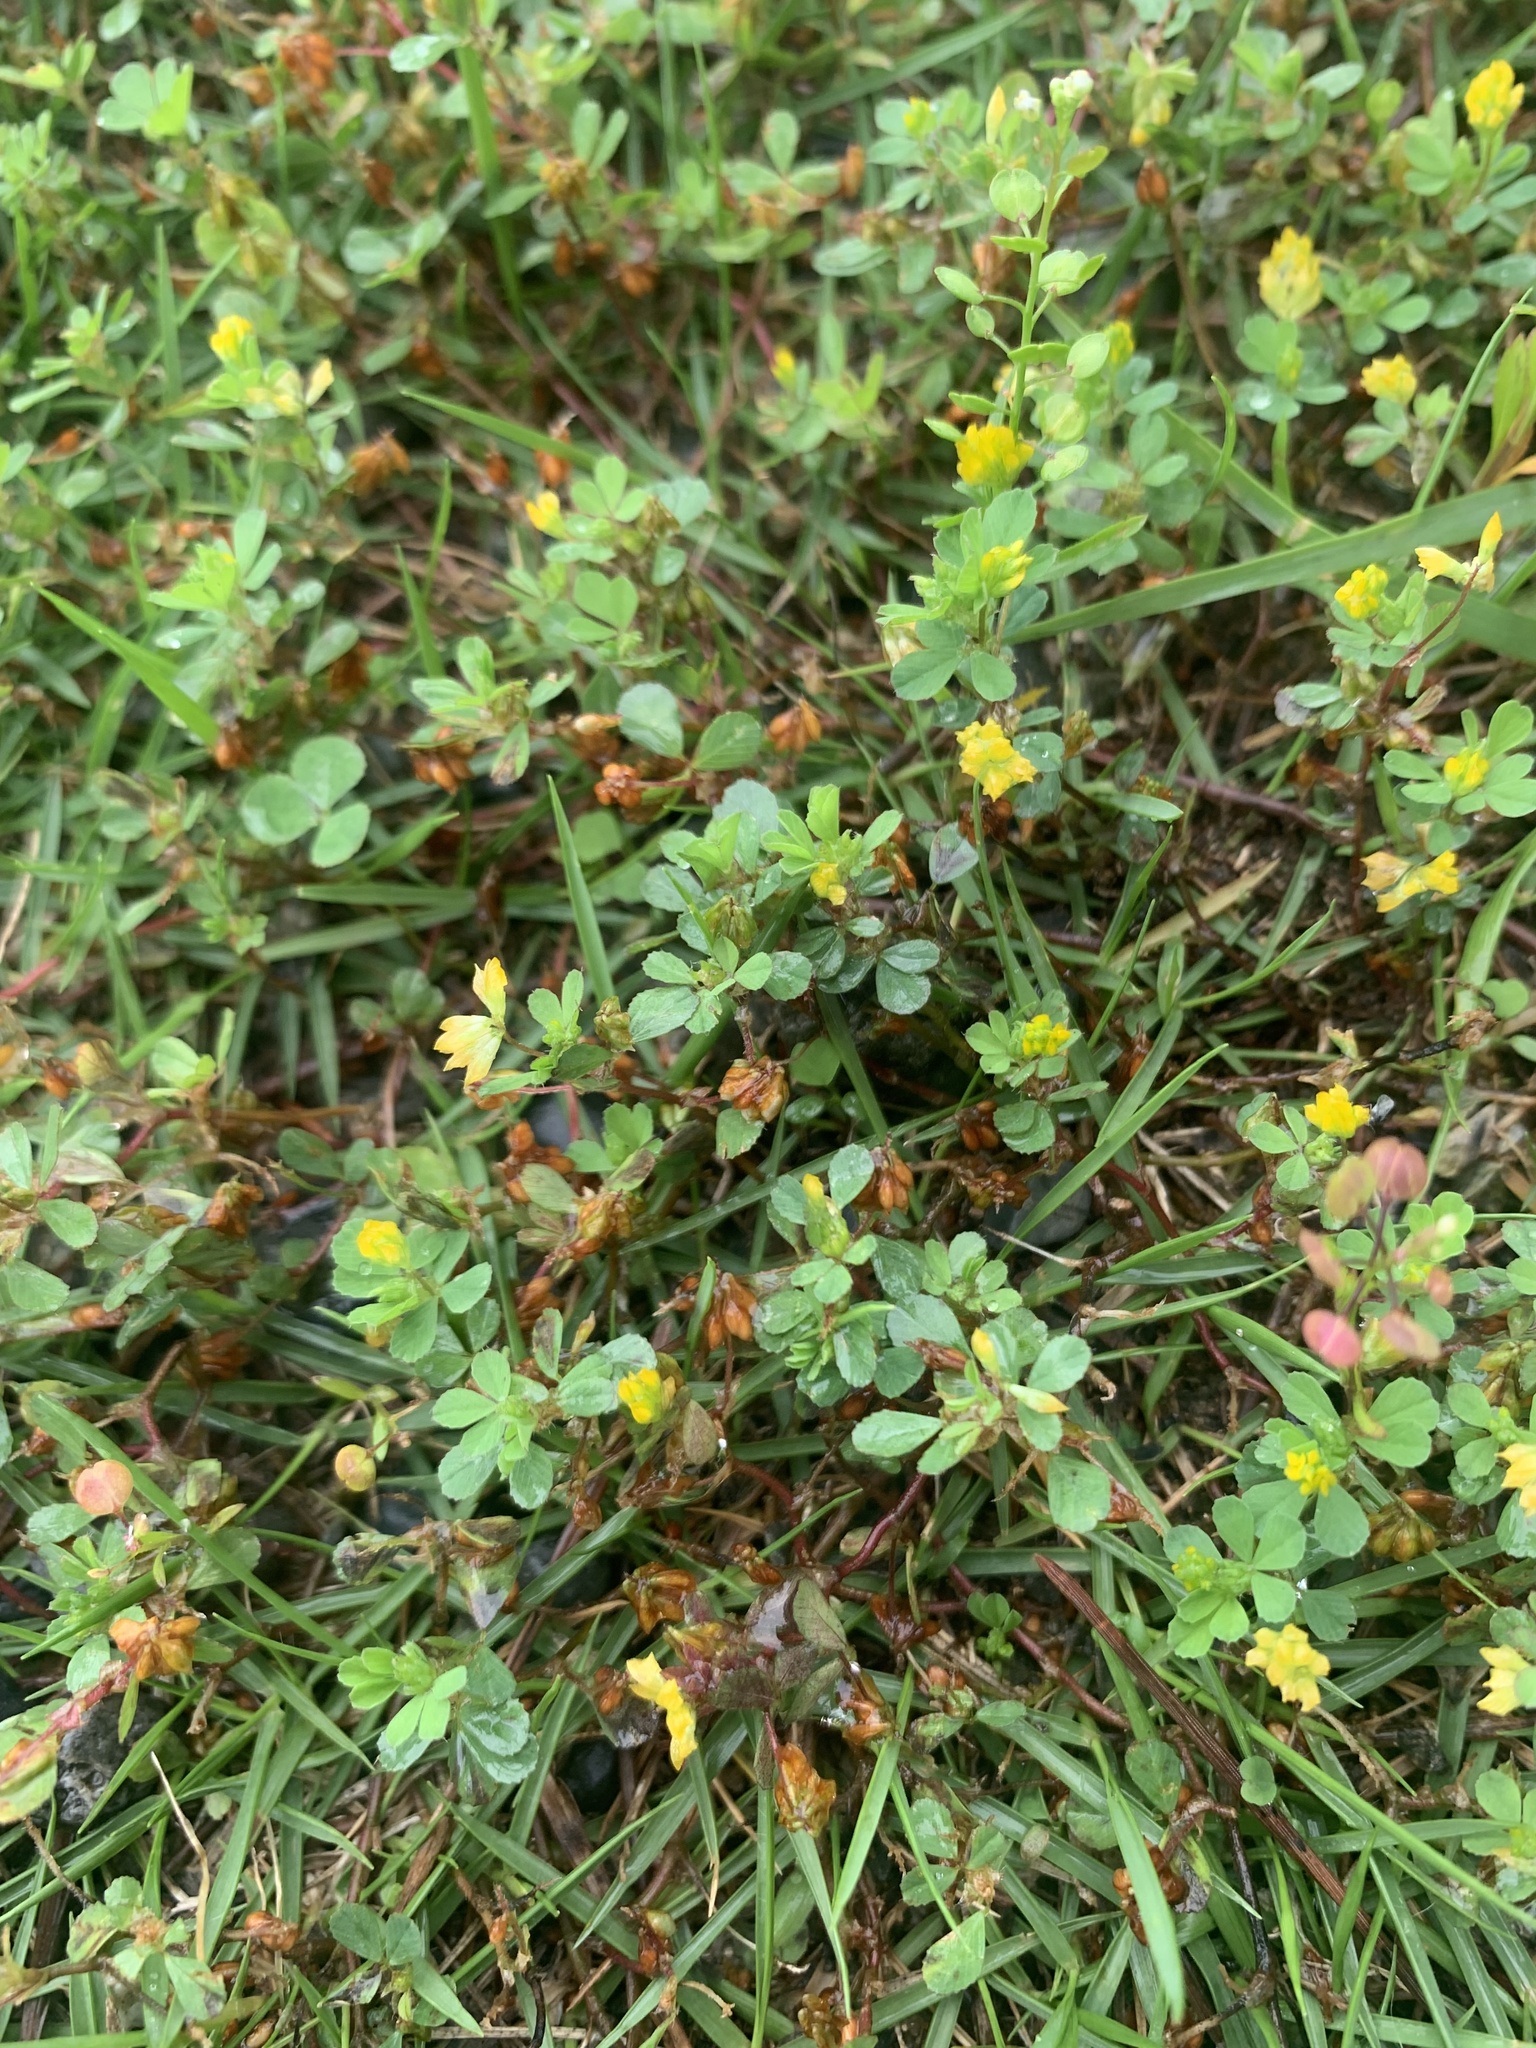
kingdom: Plantae
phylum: Tracheophyta
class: Magnoliopsida
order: Fabales
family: Fabaceae
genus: Trifolium
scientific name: Trifolium dubium
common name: Suckling clover
